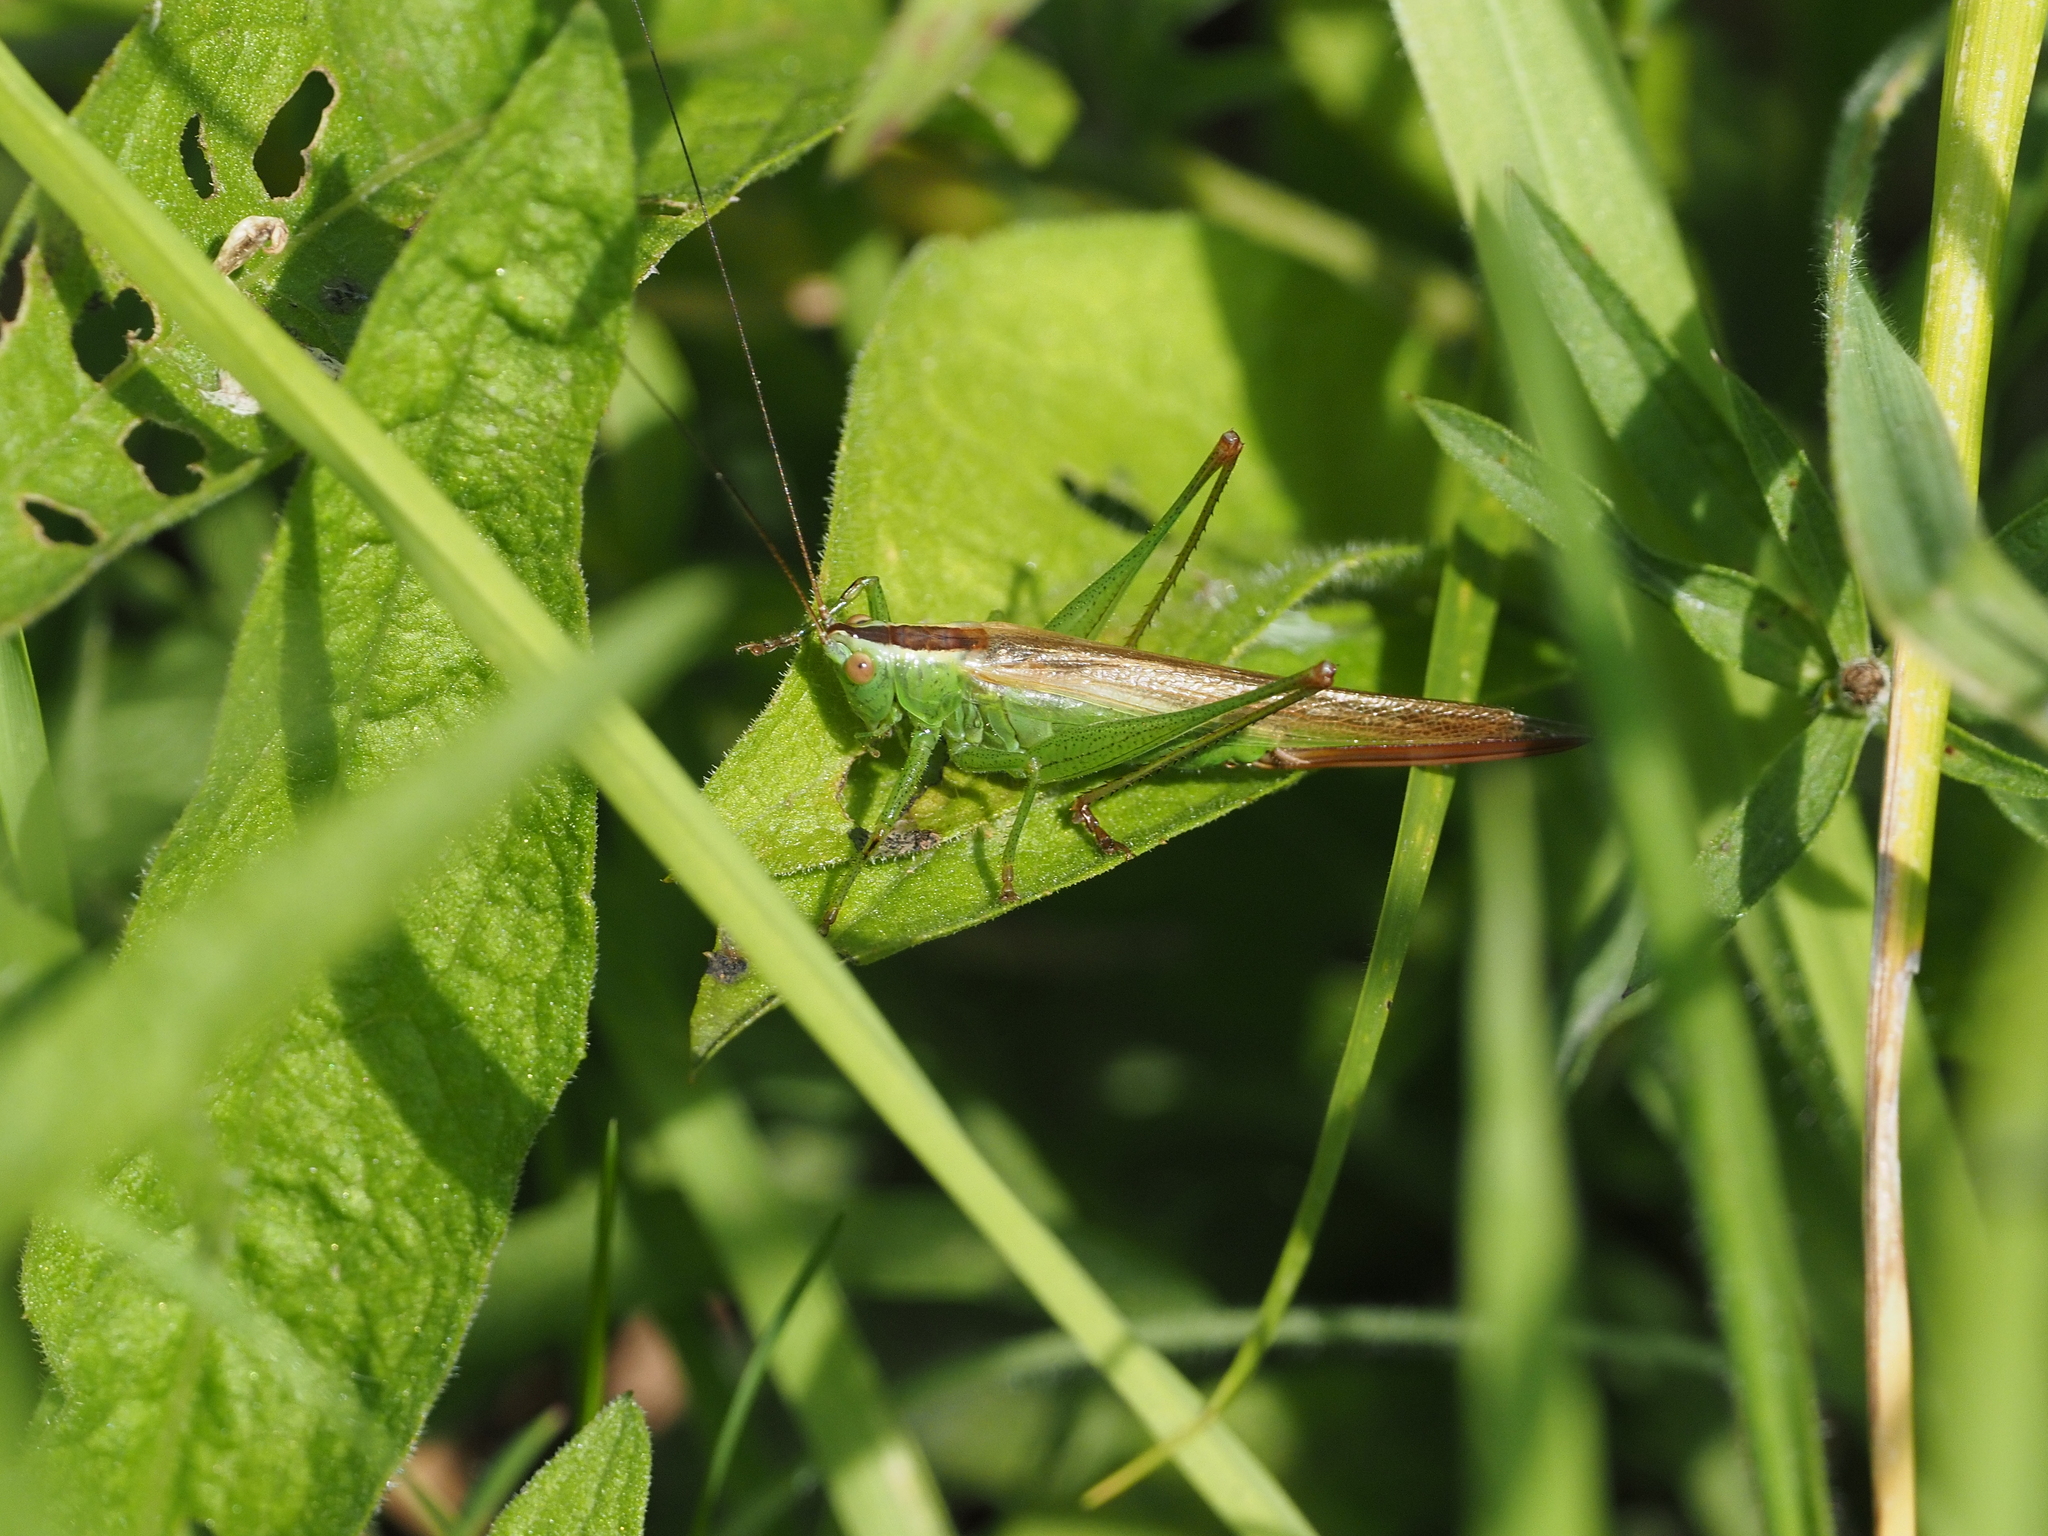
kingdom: Animalia
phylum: Arthropoda
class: Insecta
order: Orthoptera
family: Tettigoniidae
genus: Conocephalus
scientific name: Conocephalus fuscus
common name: Long-winged conehead
